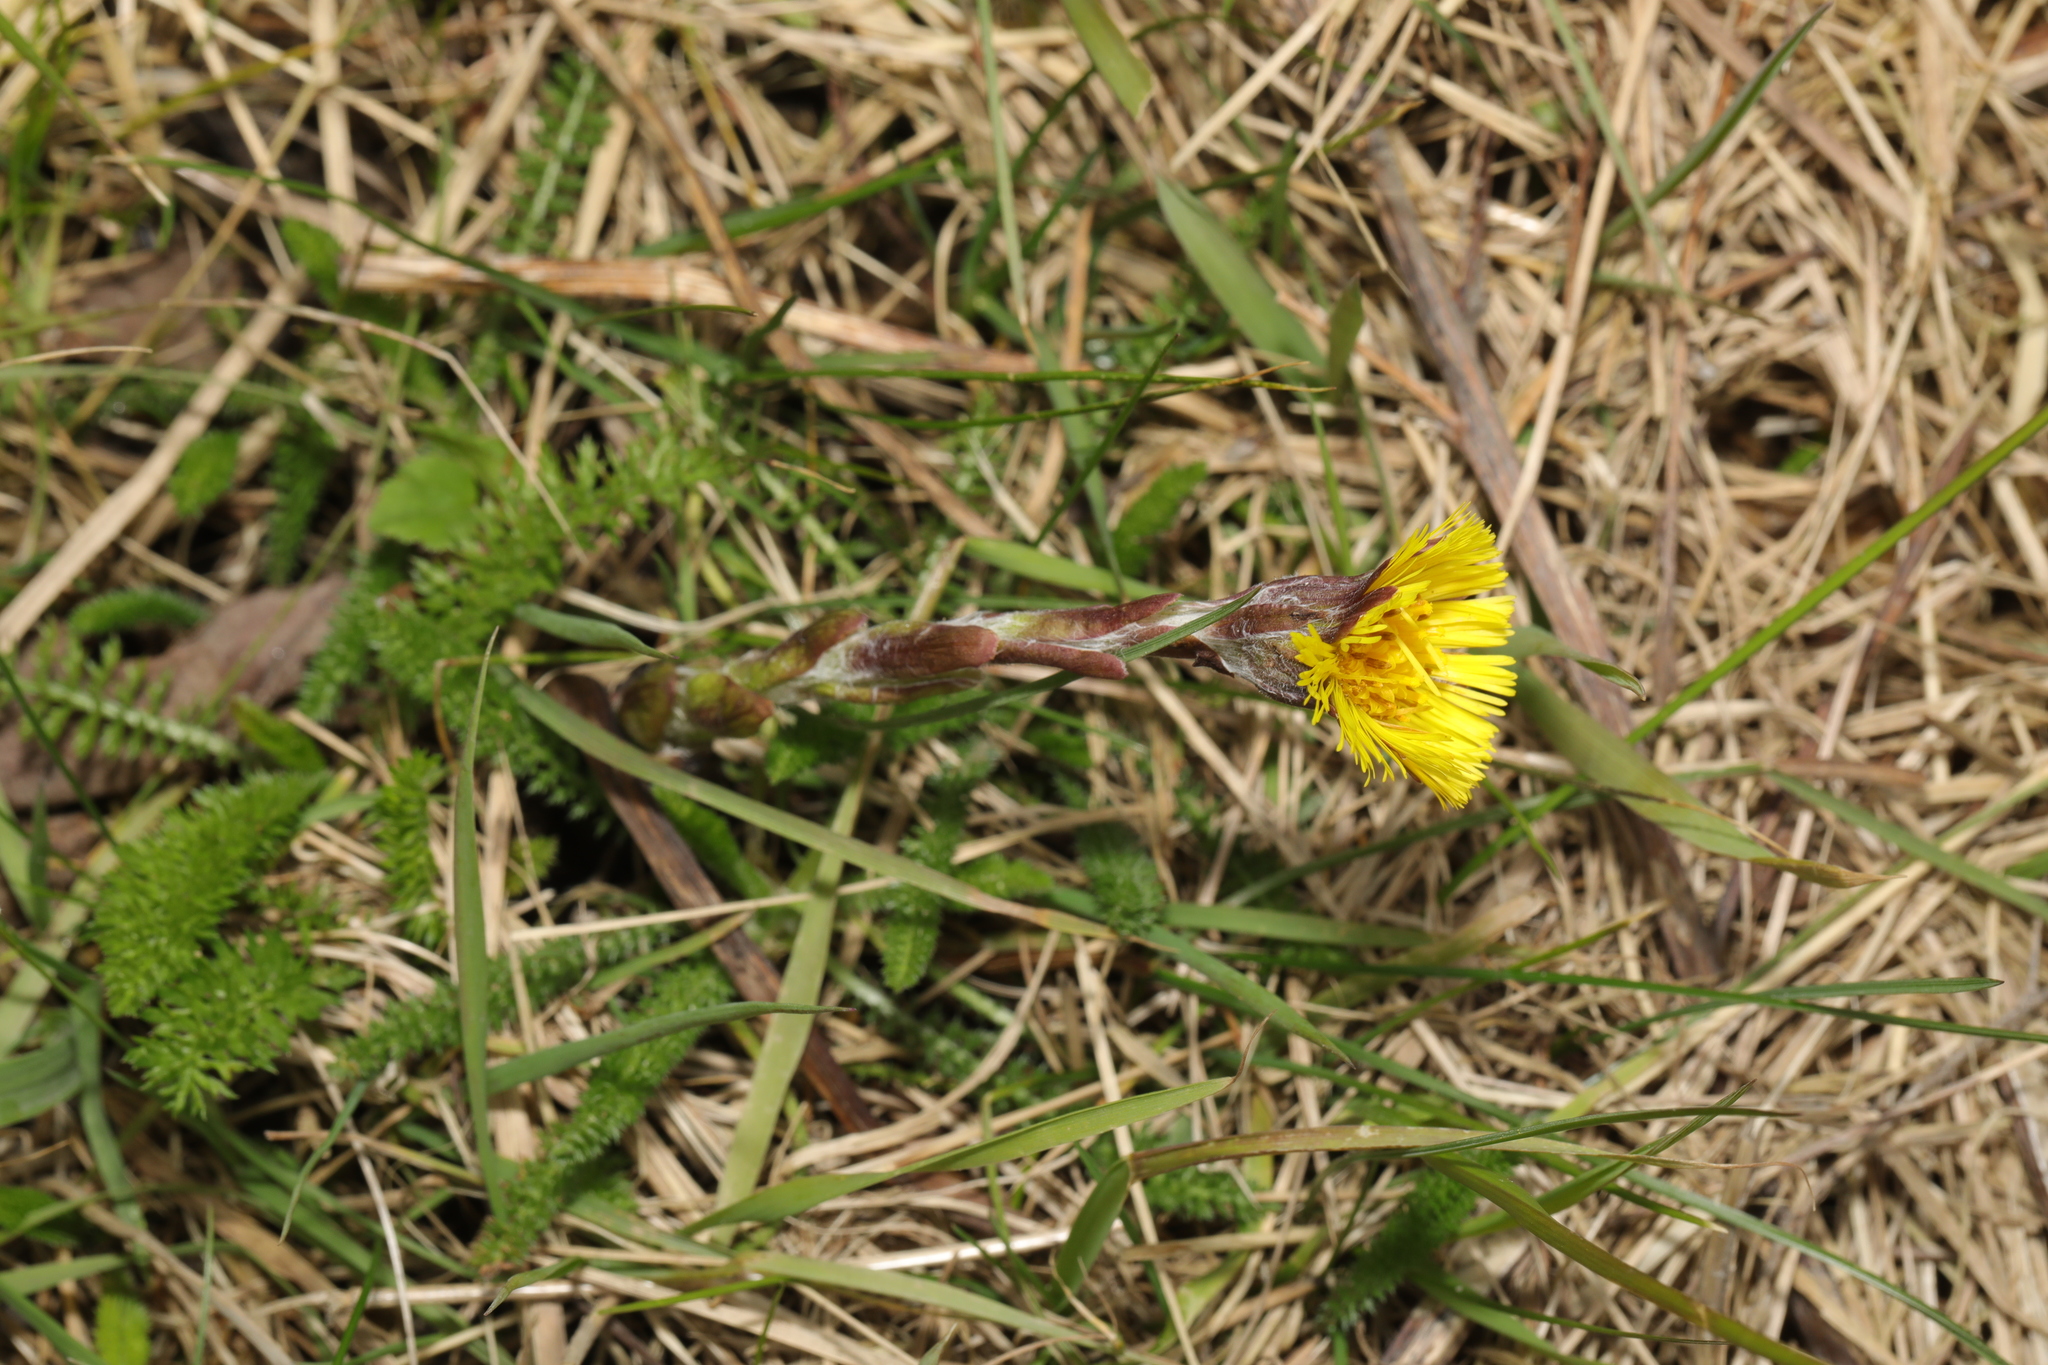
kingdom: Plantae
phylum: Tracheophyta
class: Magnoliopsida
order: Asterales
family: Asteraceae
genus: Tussilago
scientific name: Tussilago farfara
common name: Coltsfoot
